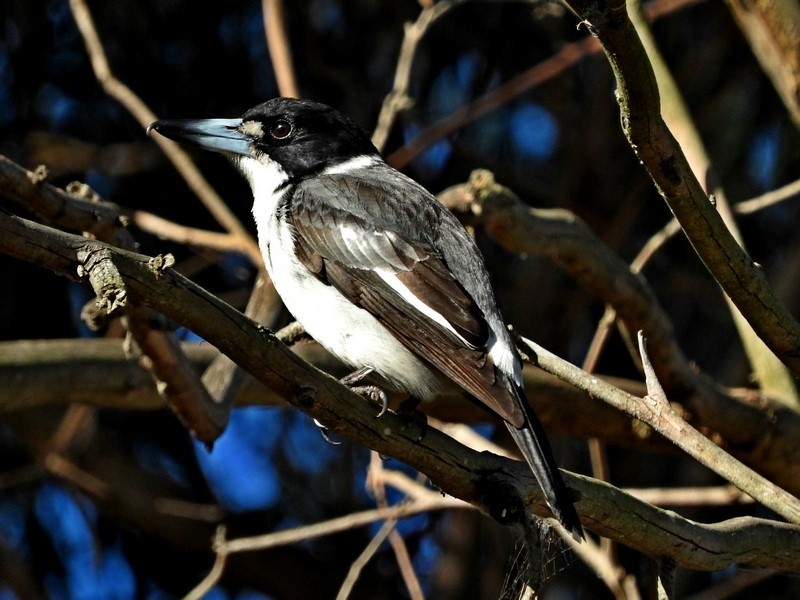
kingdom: Animalia
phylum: Chordata
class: Aves
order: Passeriformes
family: Cracticidae
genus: Cracticus
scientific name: Cracticus torquatus
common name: Grey butcherbird
